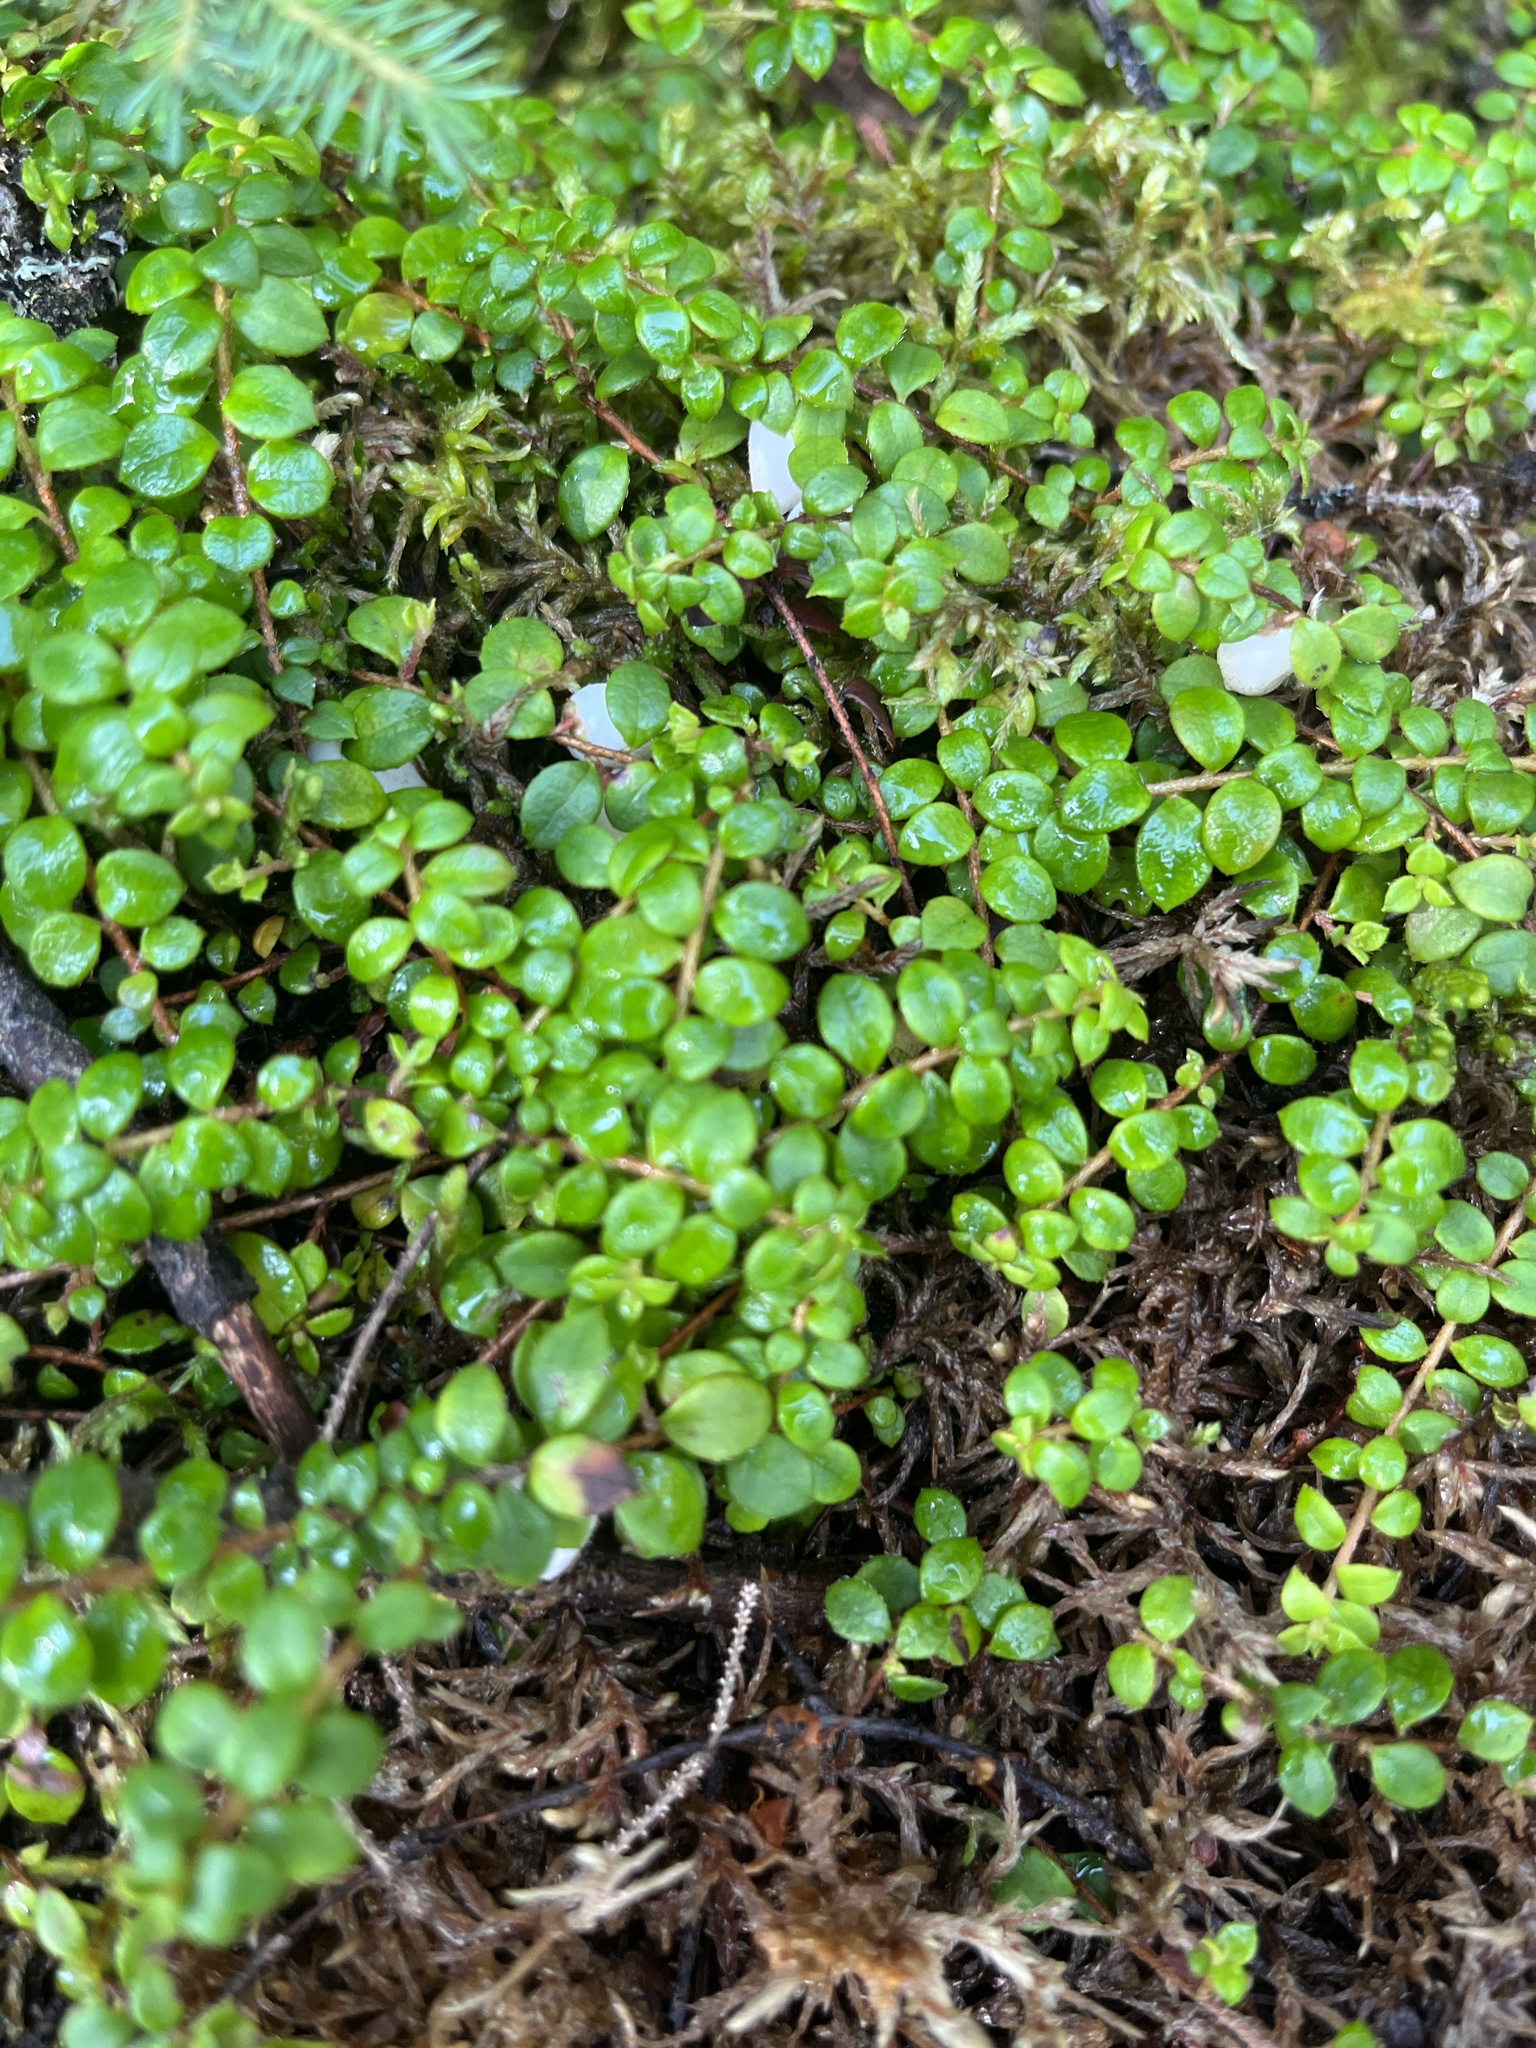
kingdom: Plantae
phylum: Tracheophyta
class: Magnoliopsida
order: Ericales
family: Ericaceae
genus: Gaultheria
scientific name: Gaultheria hispidula
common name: Cancer wintergreen
